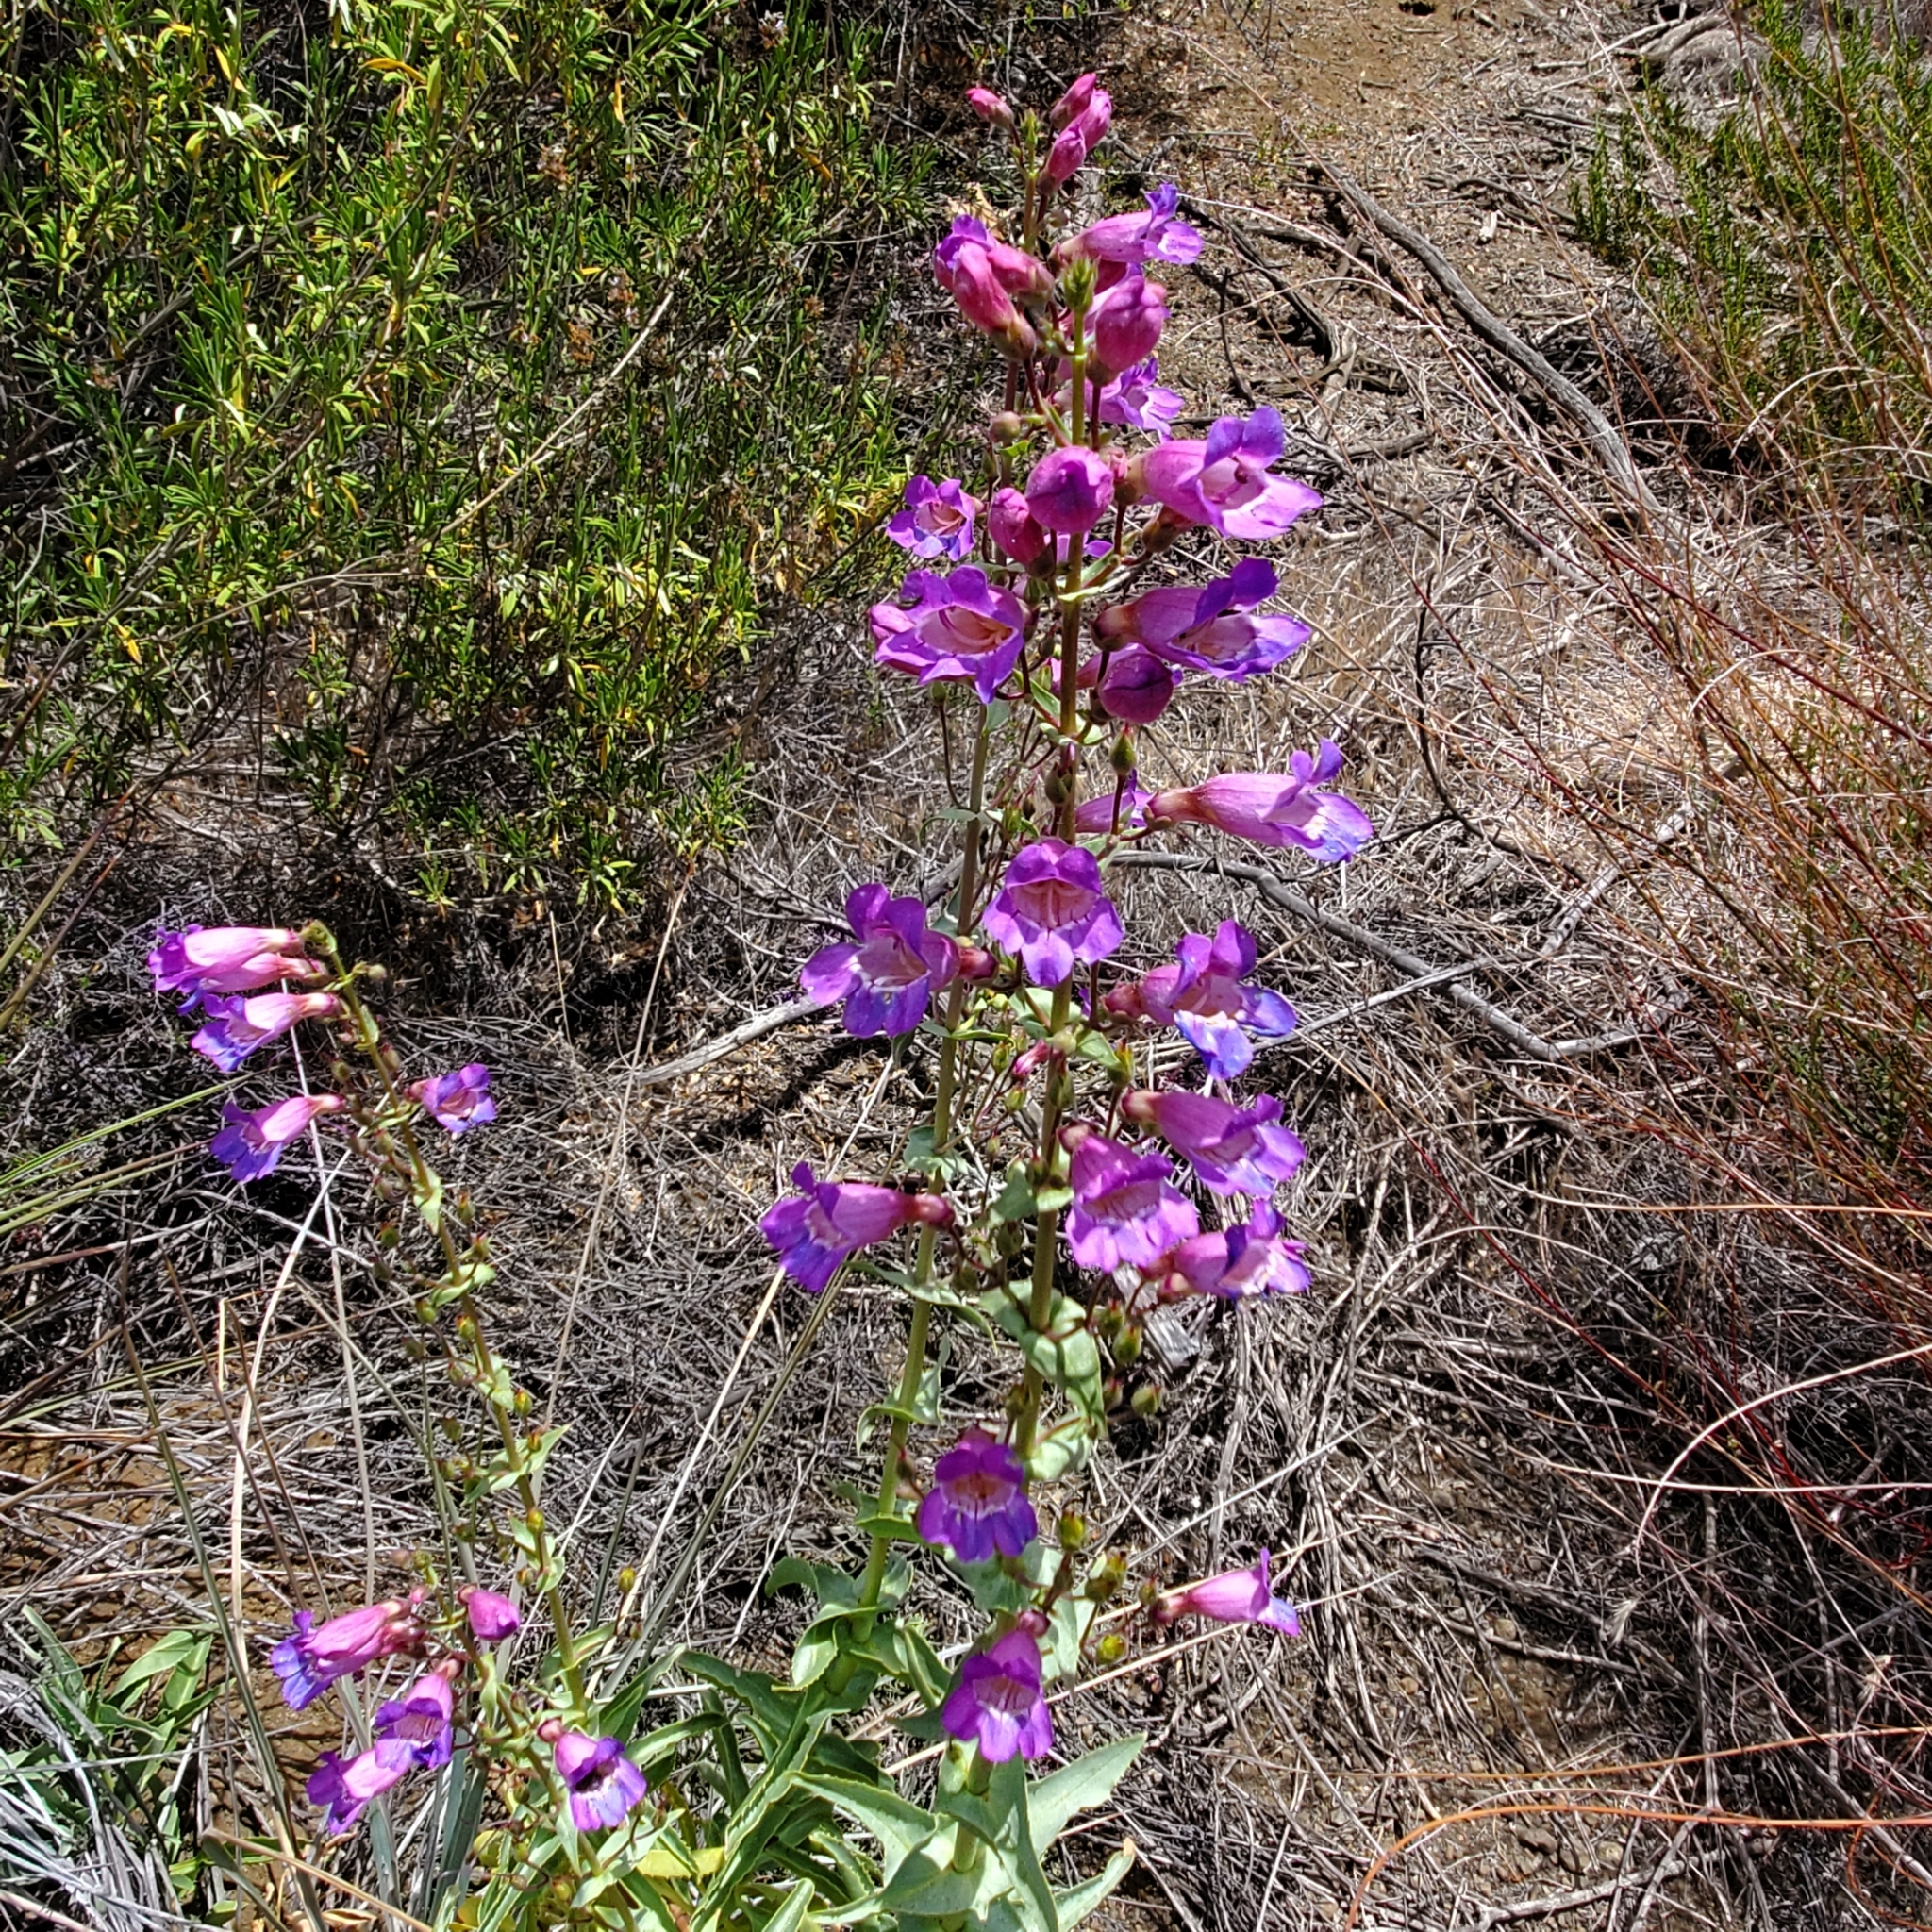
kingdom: Plantae
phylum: Tracheophyta
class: Magnoliopsida
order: Lamiales
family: Plantaginaceae
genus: Penstemon
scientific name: Penstemon spectabilis
